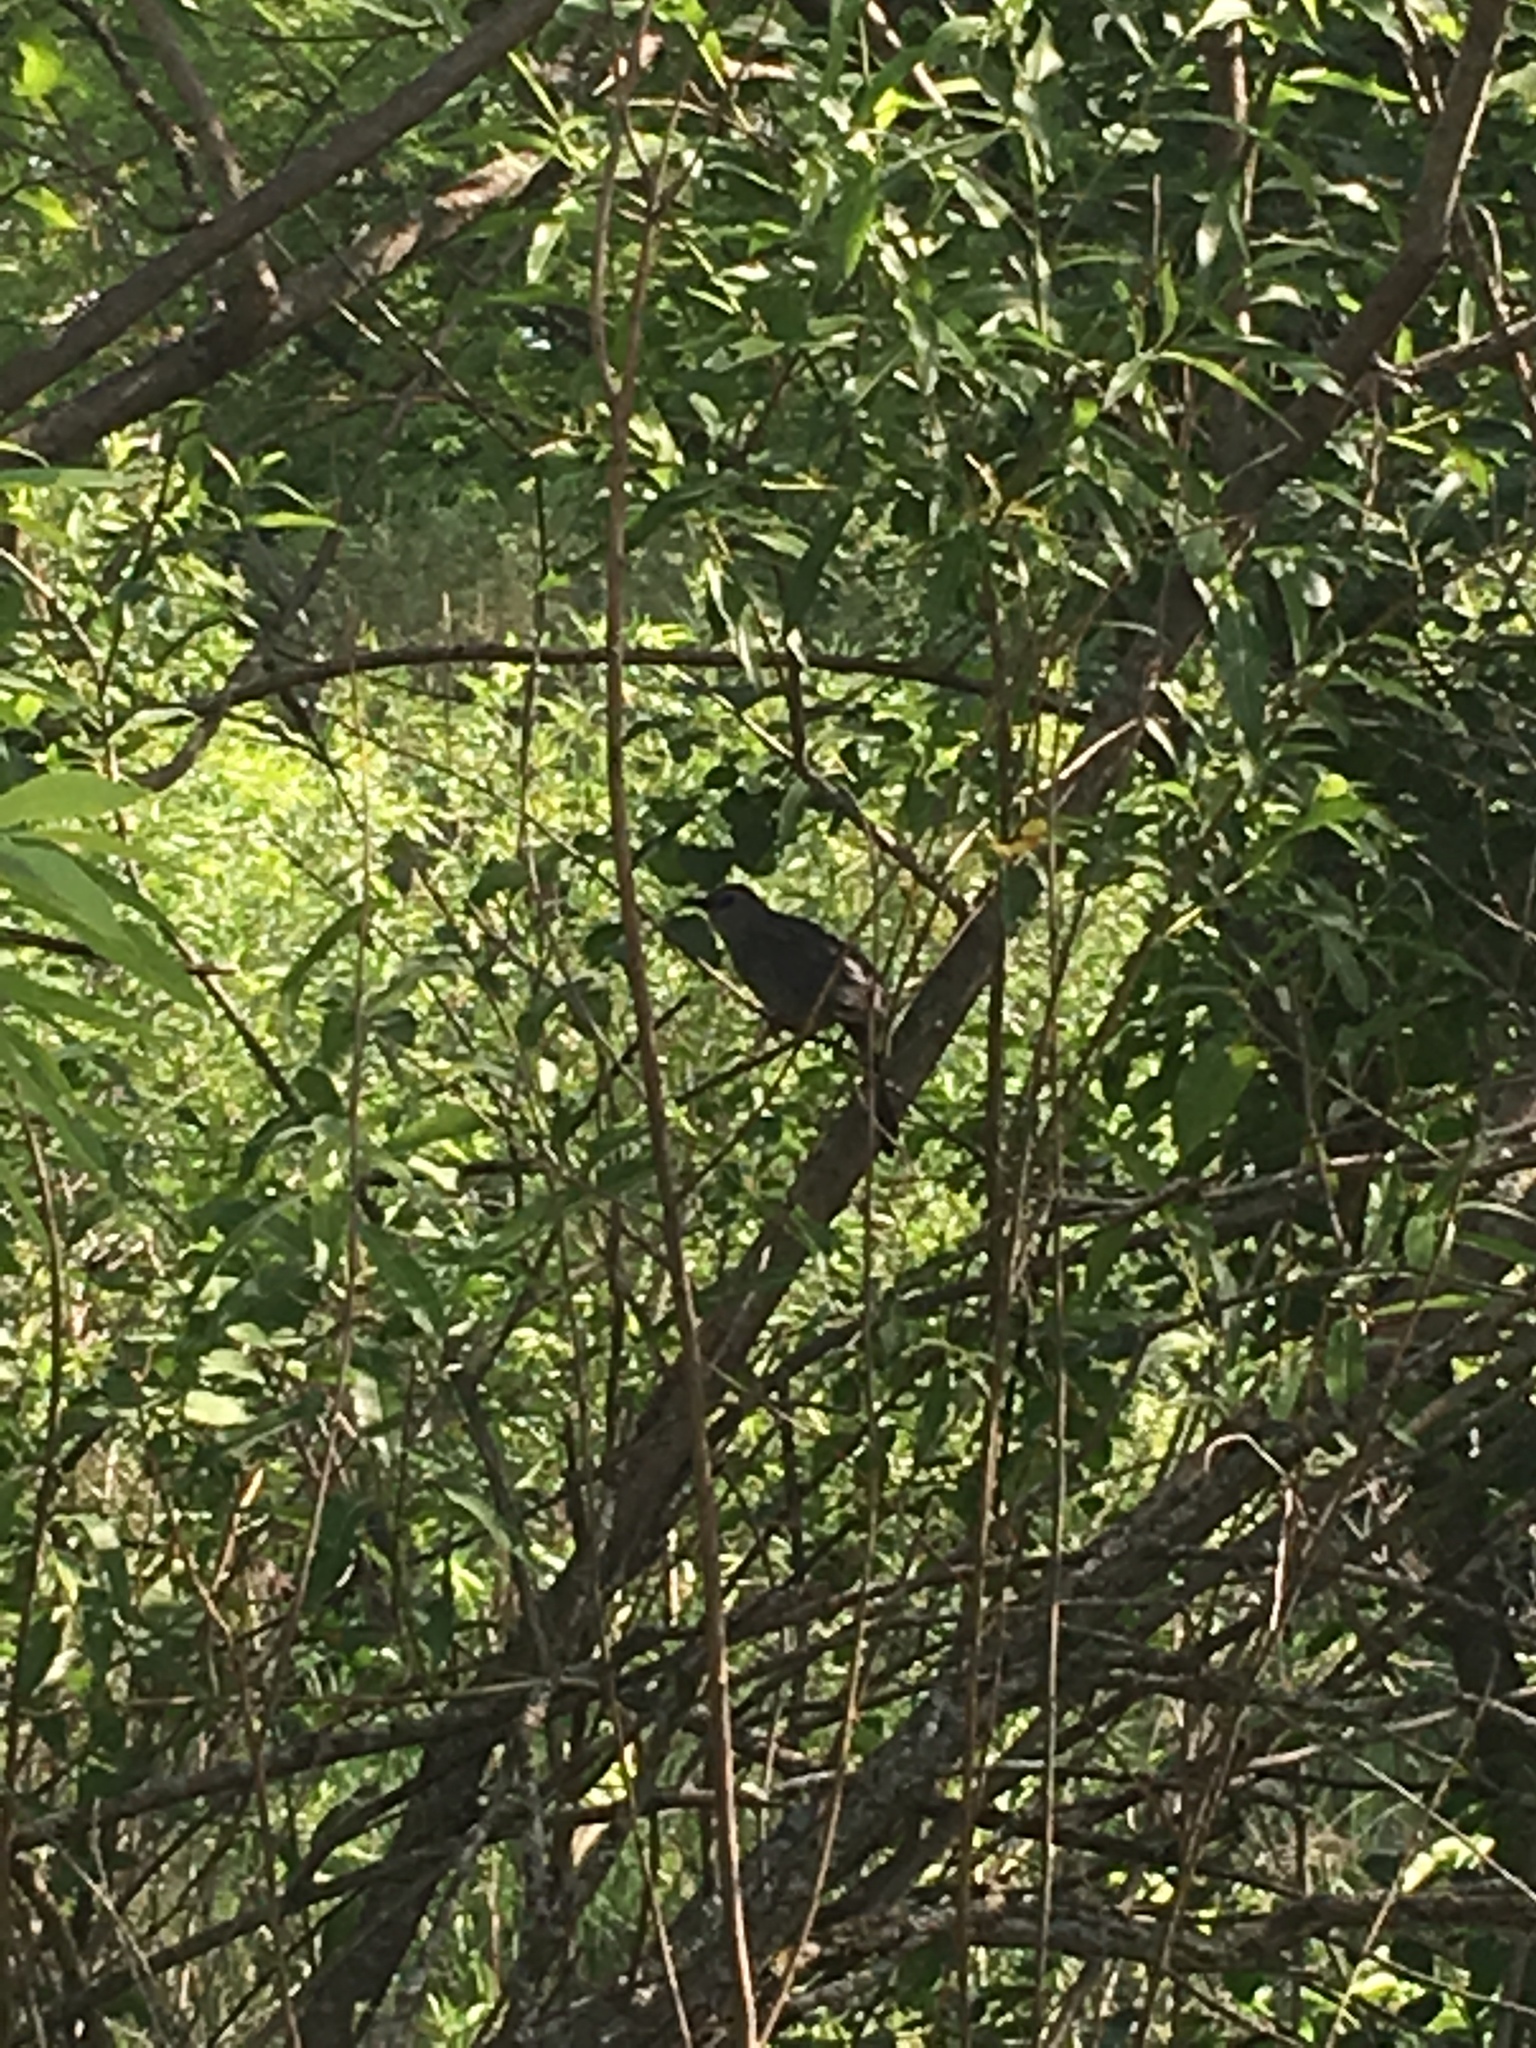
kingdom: Animalia
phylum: Chordata
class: Aves
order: Passeriformes
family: Mimidae
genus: Dumetella
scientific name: Dumetella carolinensis
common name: Gray catbird
